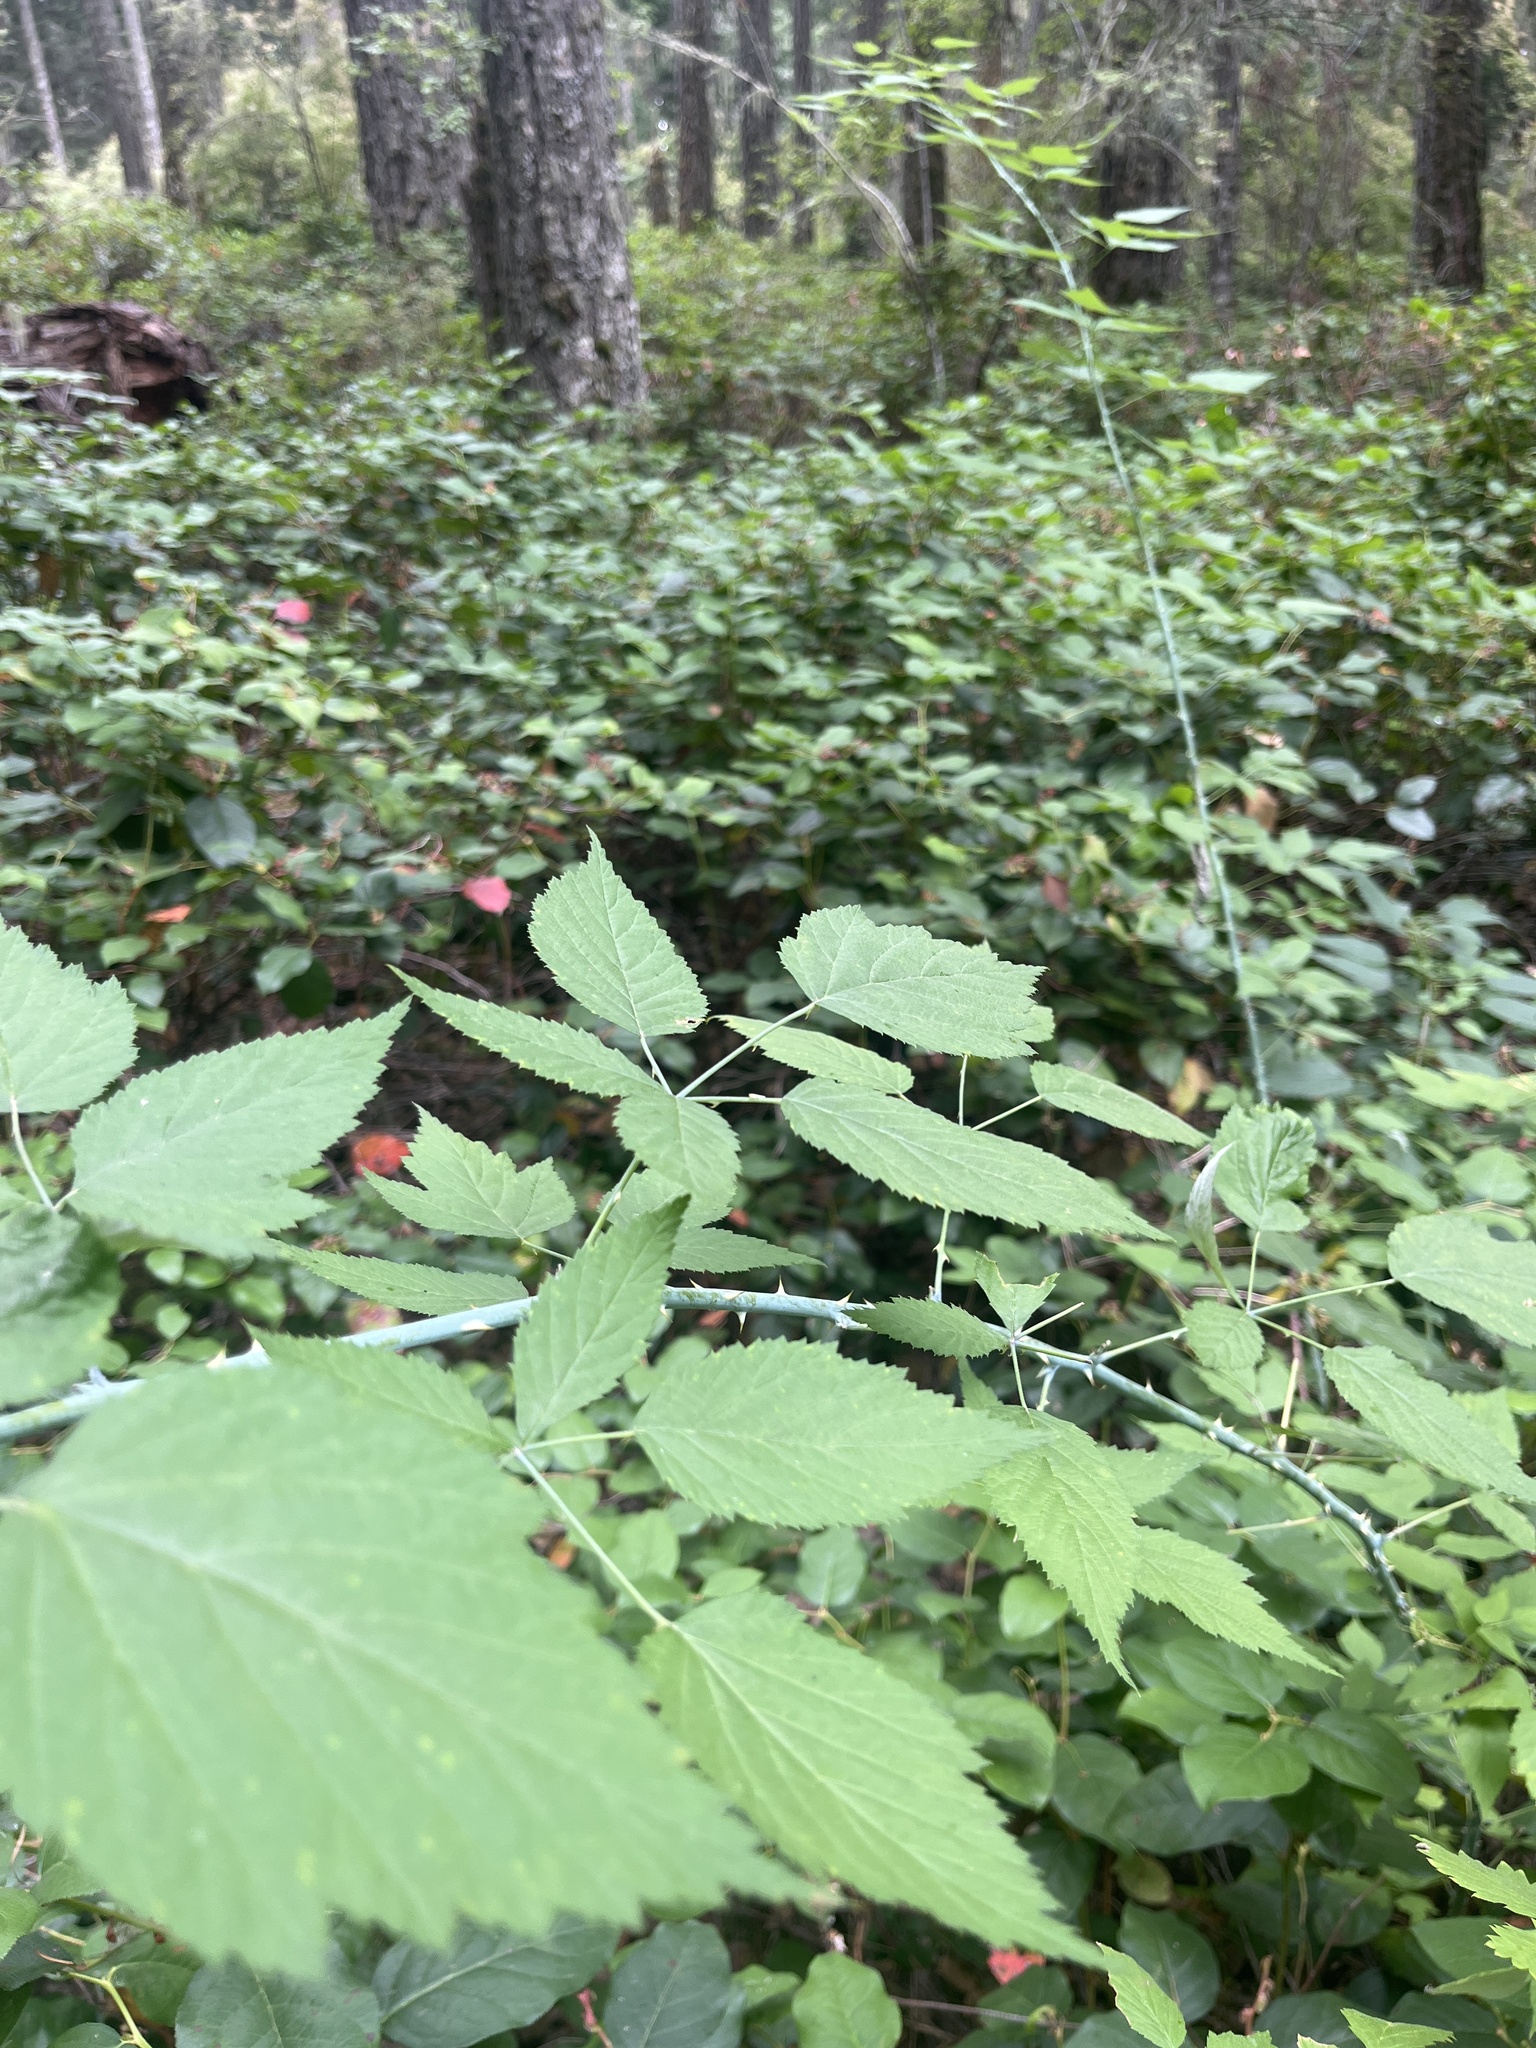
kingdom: Plantae
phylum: Tracheophyta
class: Magnoliopsida
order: Rosales
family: Rosaceae
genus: Rubus
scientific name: Rubus leucodermis
